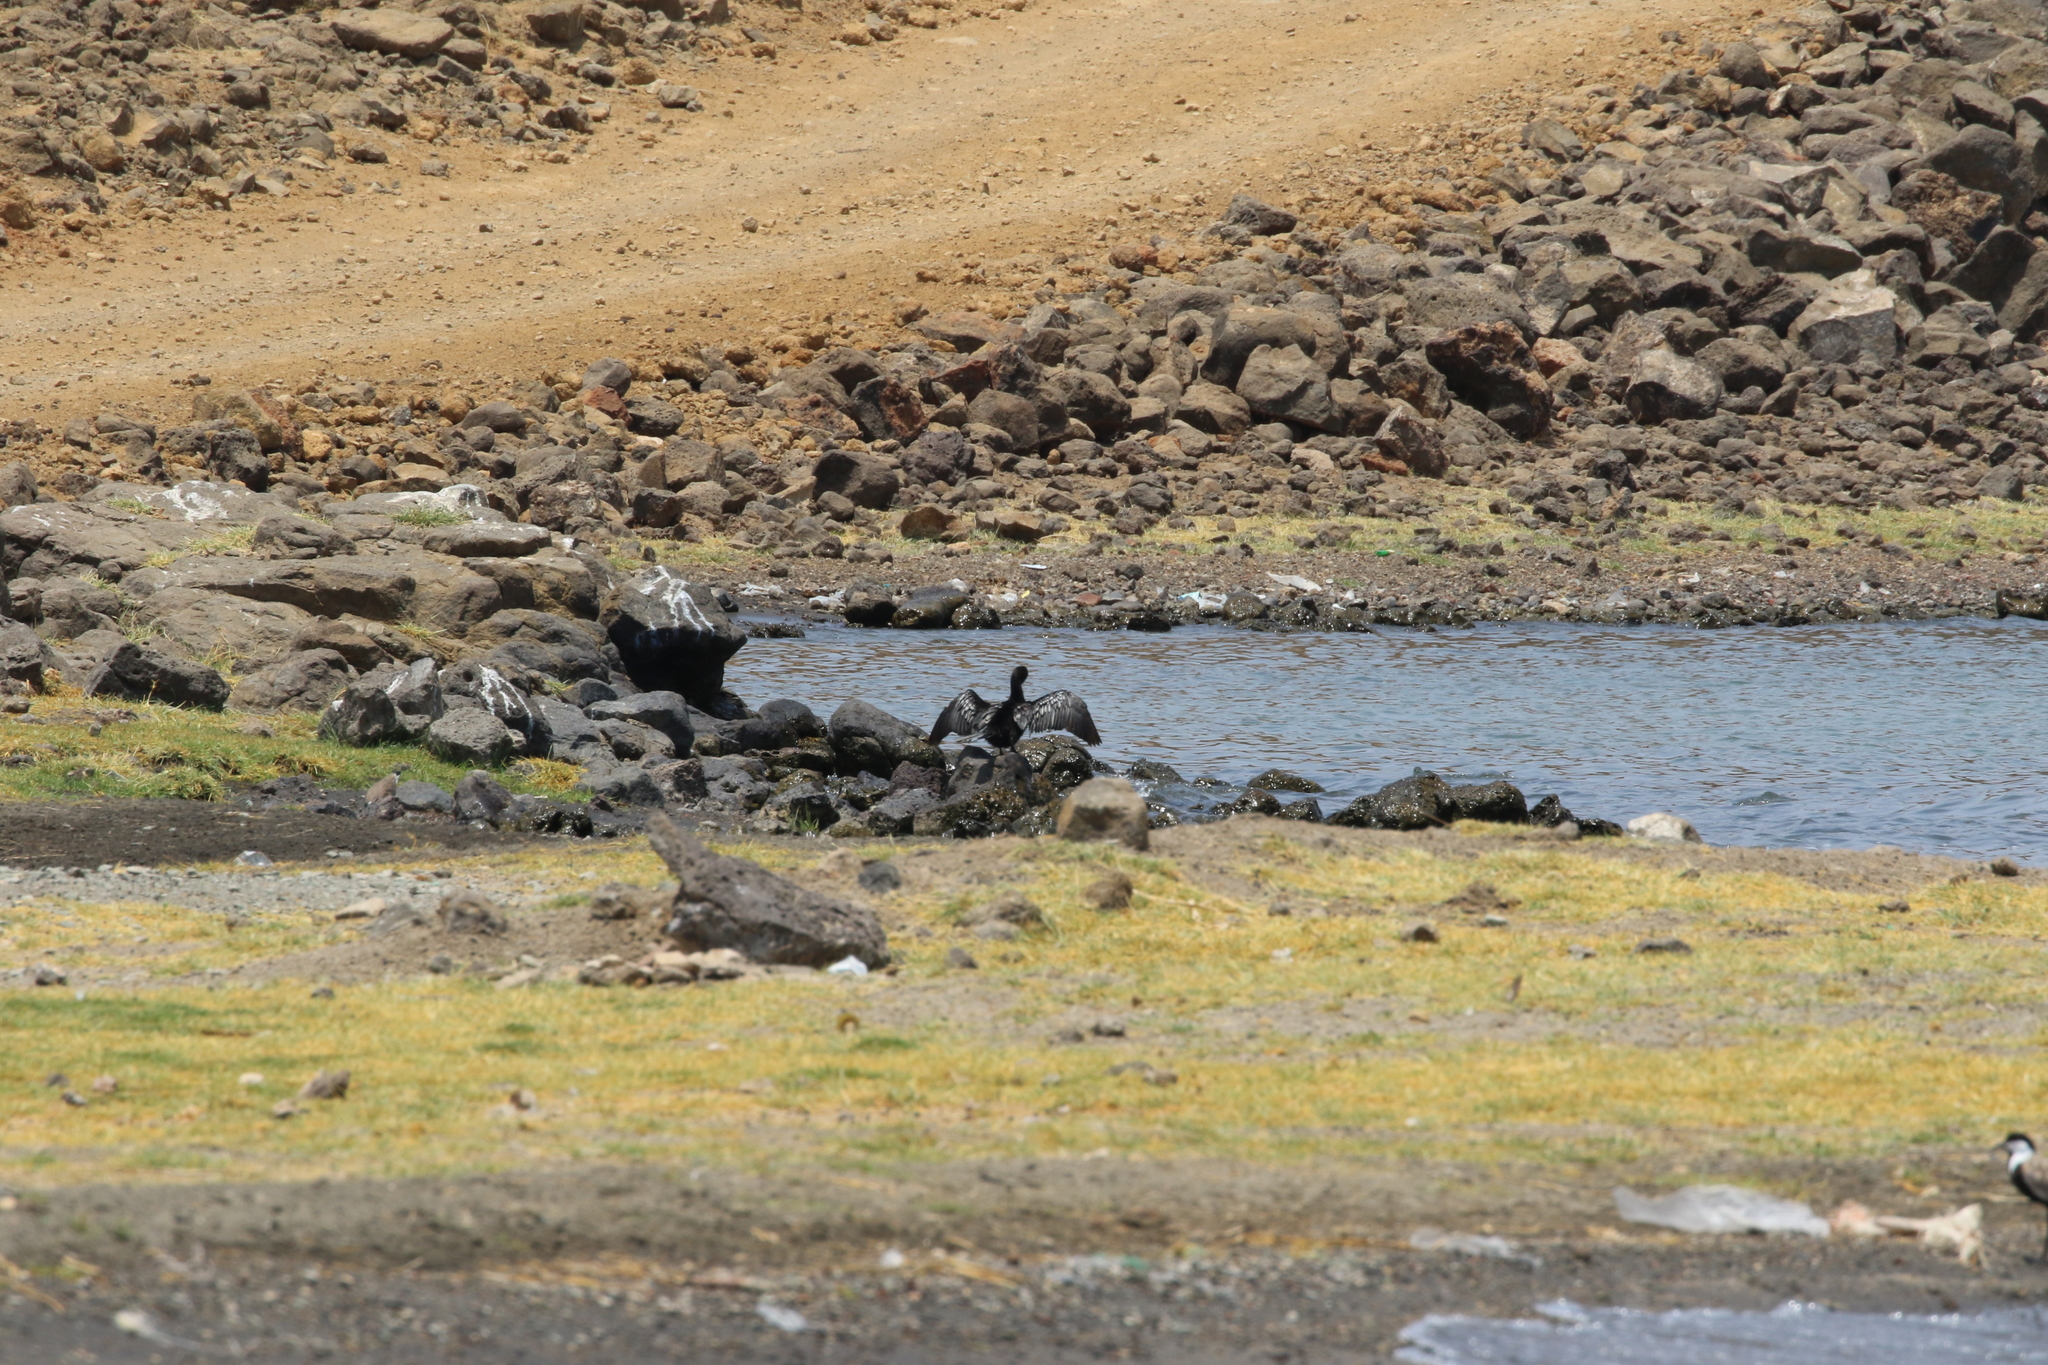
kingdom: Animalia
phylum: Chordata
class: Aves
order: Suliformes
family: Phalacrocoracidae
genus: Microcarbo
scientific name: Microcarbo africanus
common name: Long-tailed cormorant
